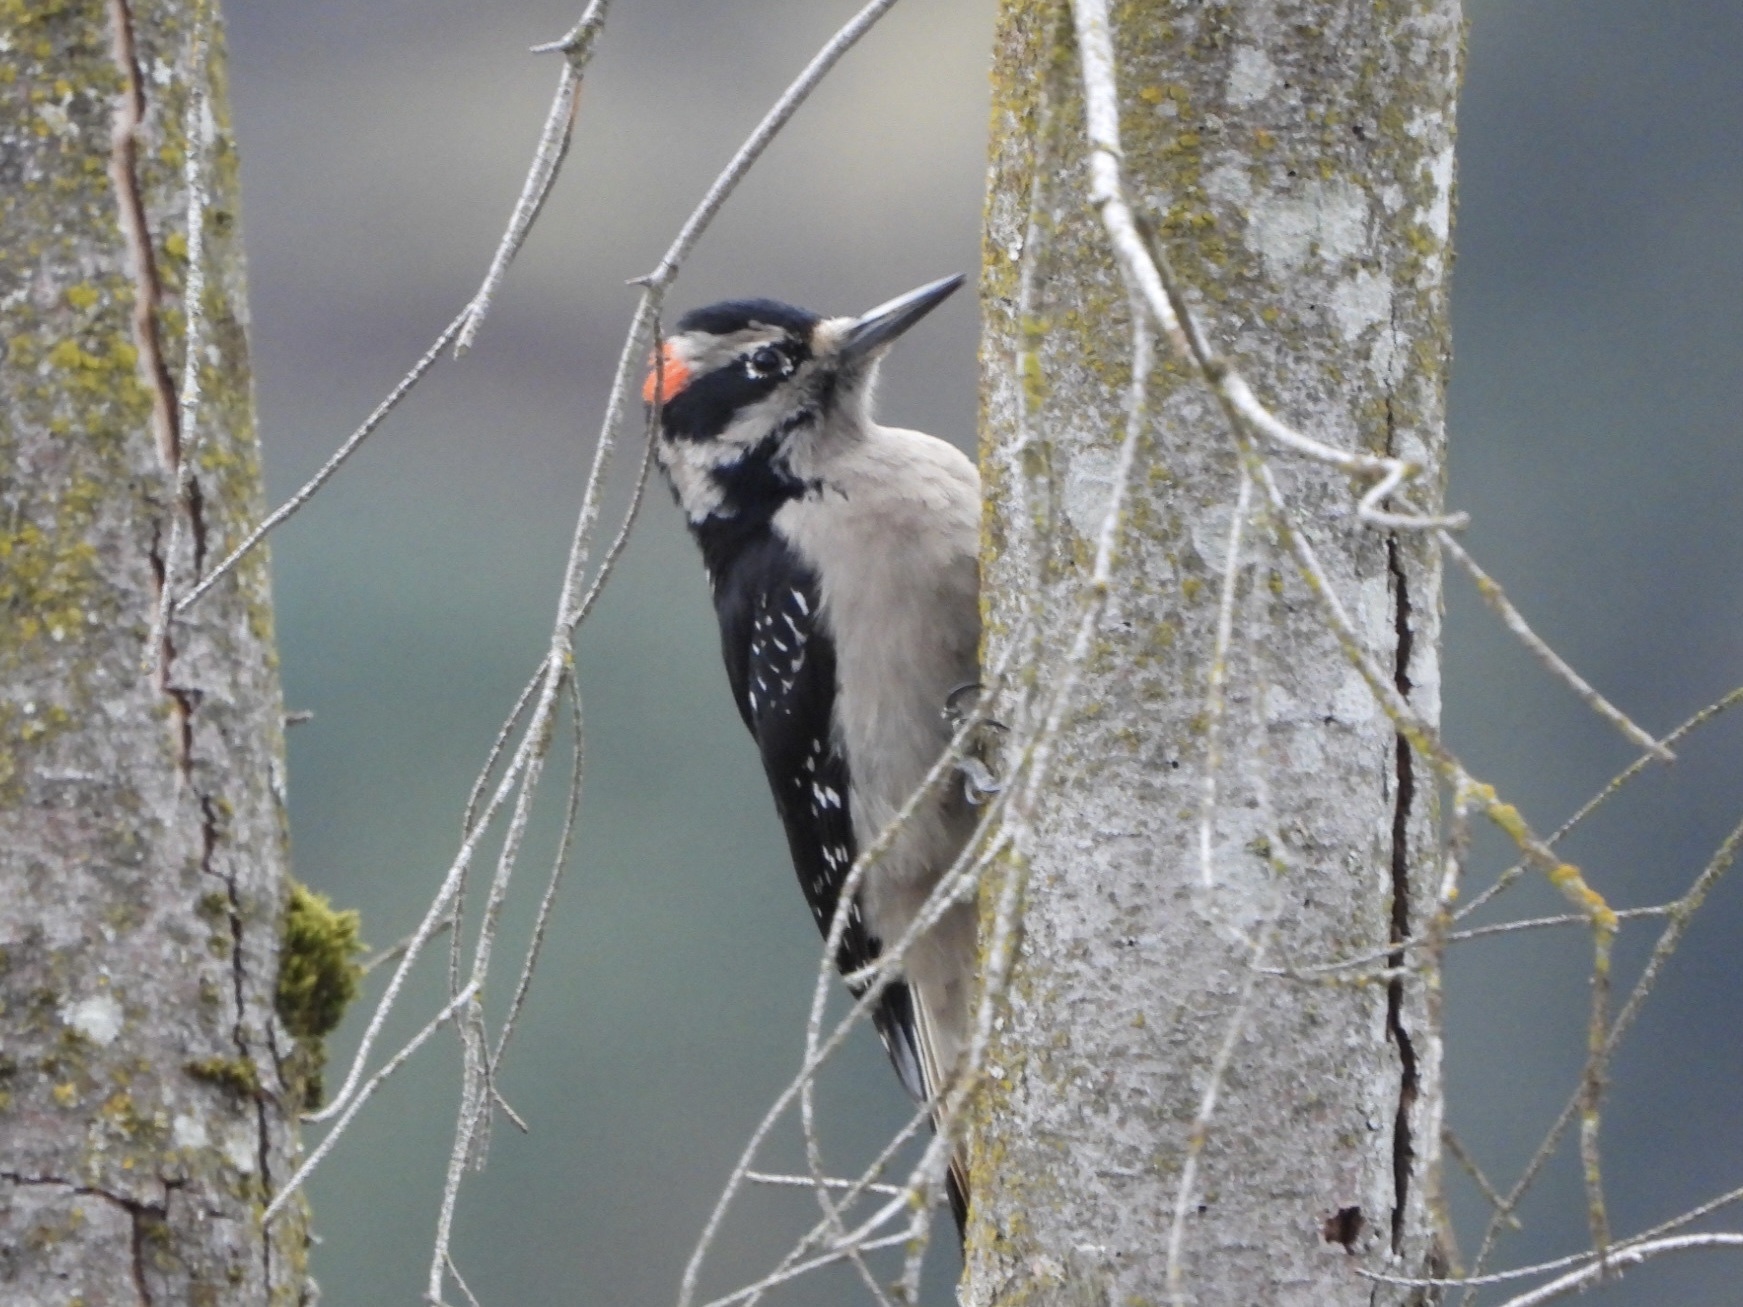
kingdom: Animalia
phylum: Chordata
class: Aves
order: Piciformes
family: Picidae
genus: Leuconotopicus
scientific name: Leuconotopicus villosus
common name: Hairy woodpecker
